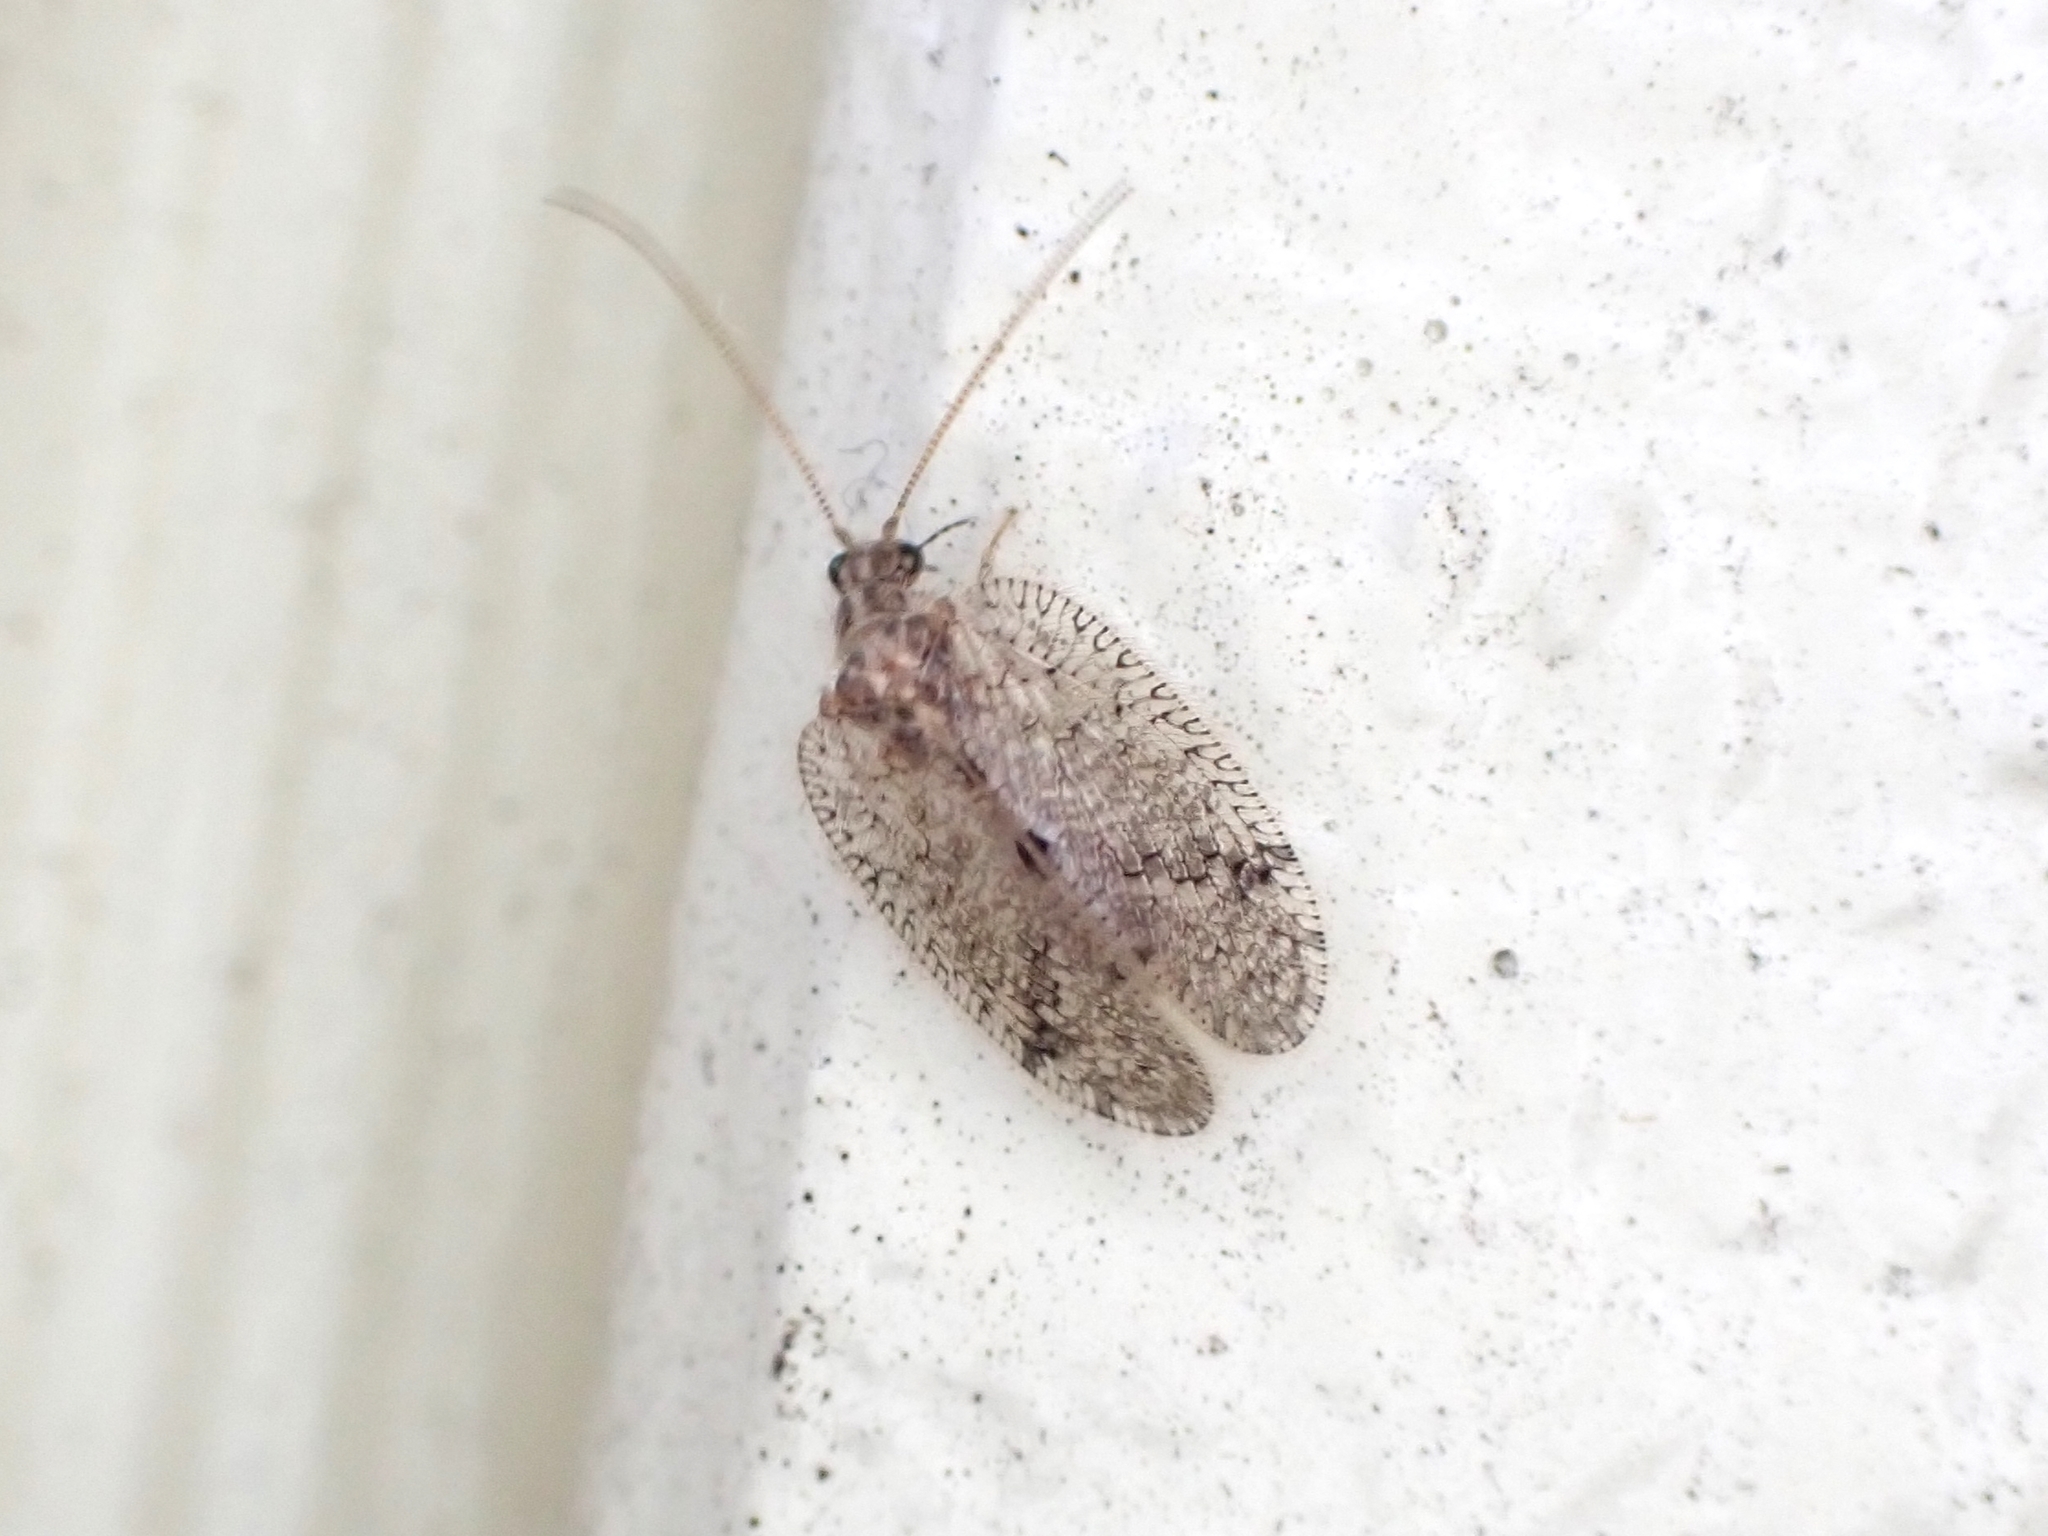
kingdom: Animalia
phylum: Arthropoda
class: Insecta
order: Neuroptera
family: Hemerobiidae
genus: Psectra
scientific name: Psectra nakaharai
